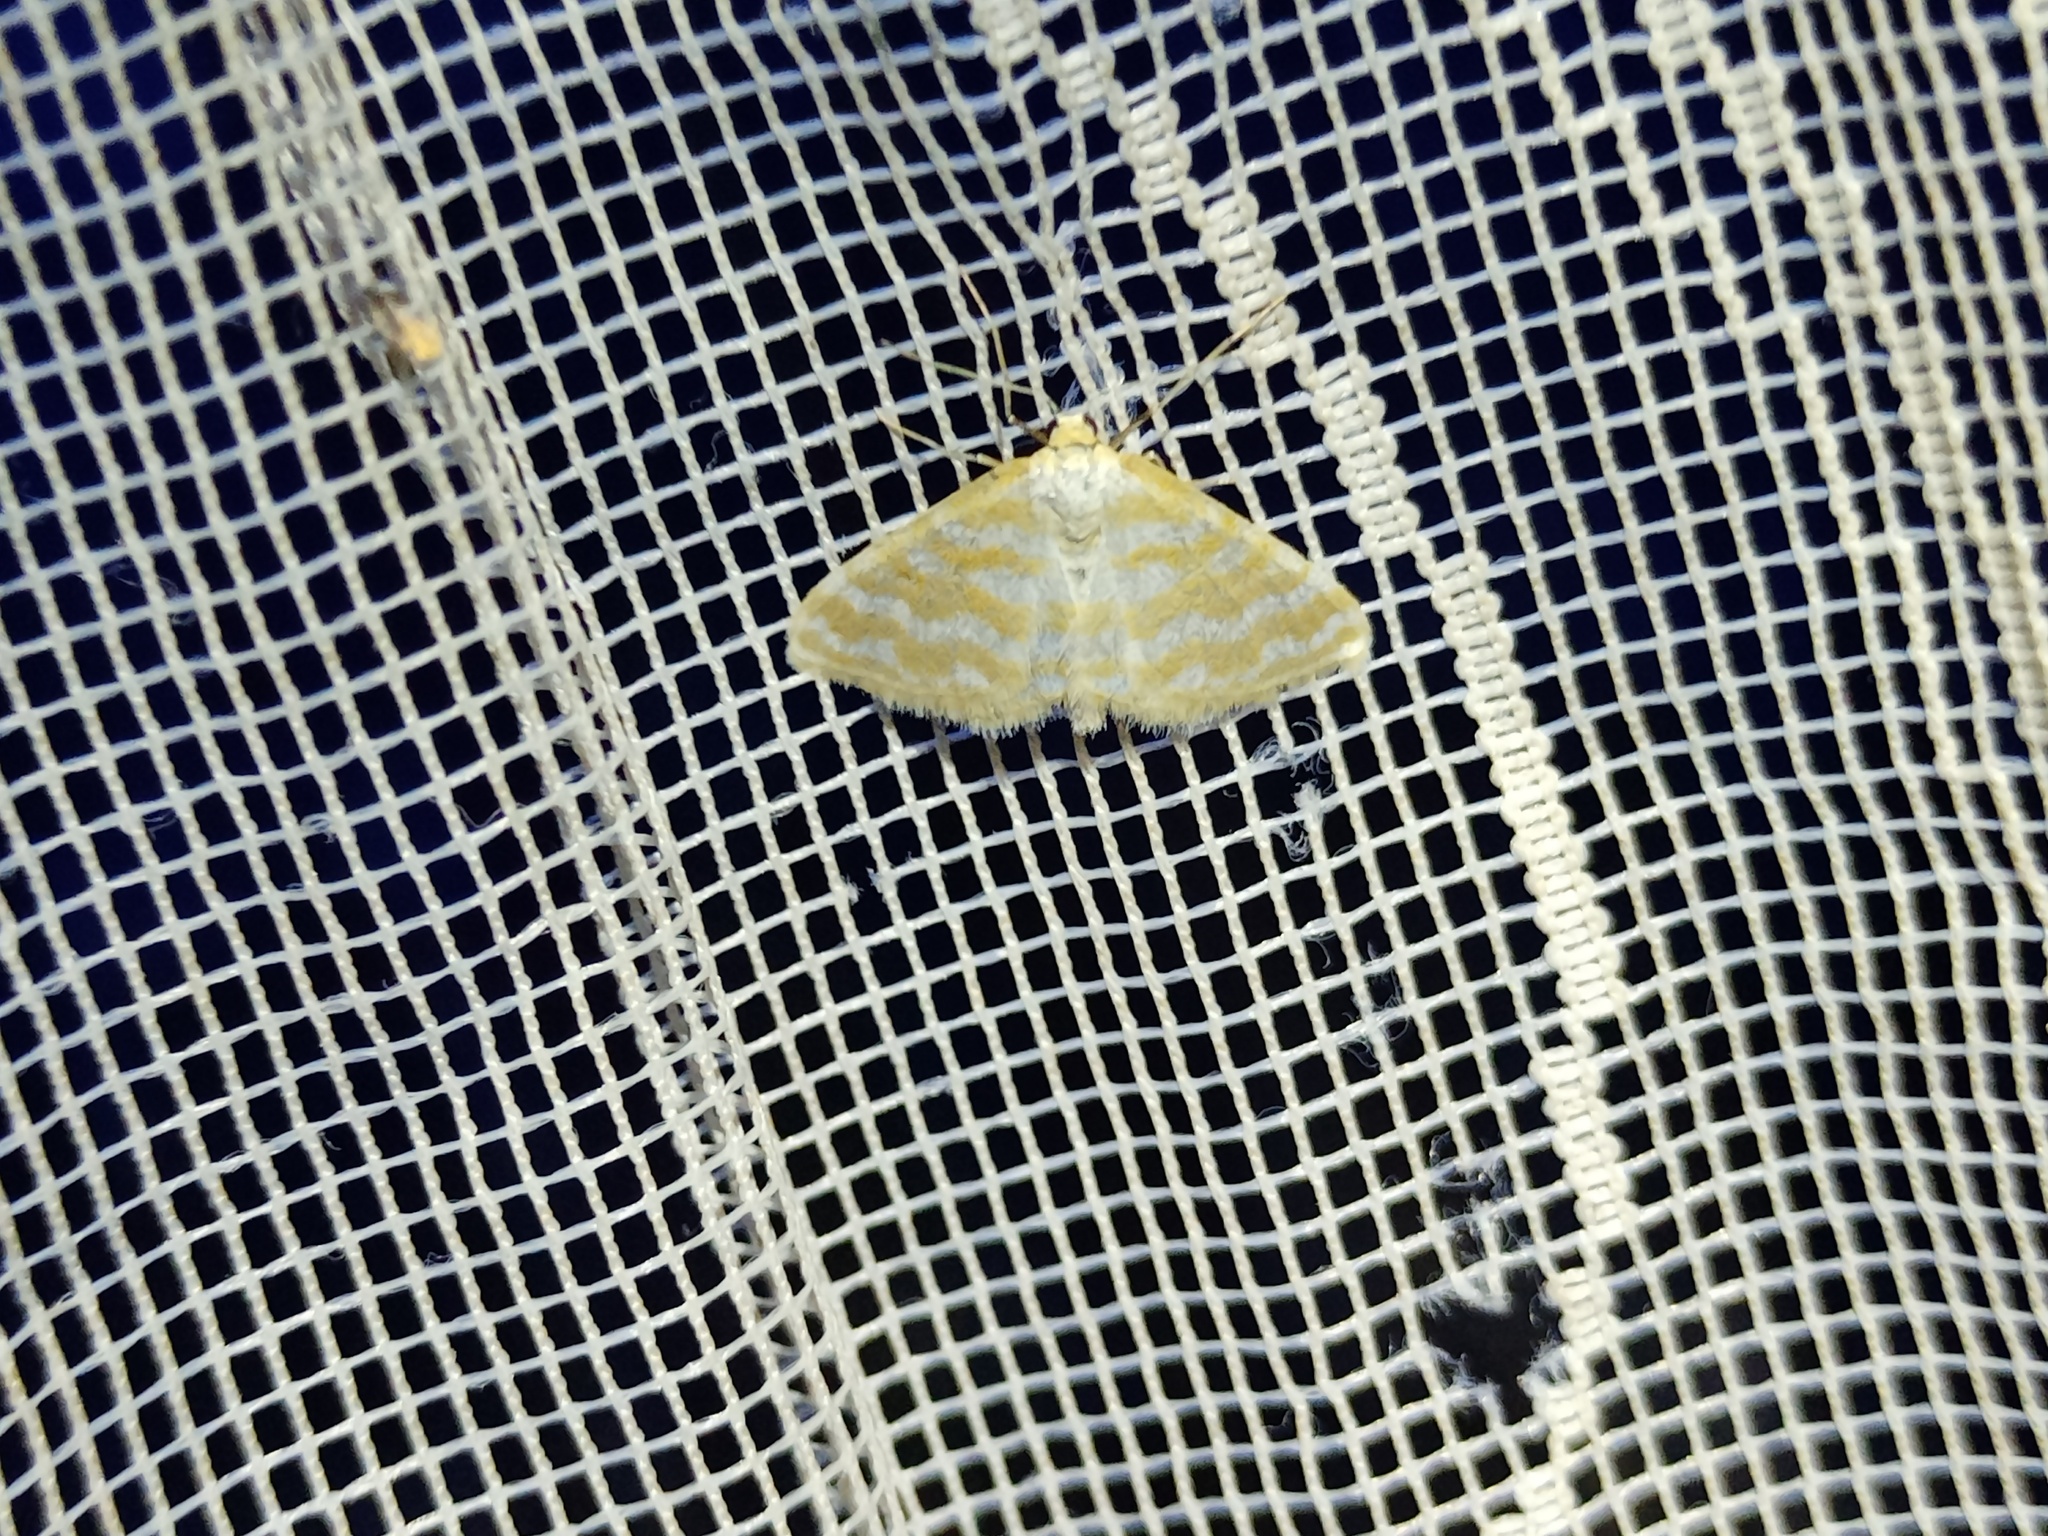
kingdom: Animalia
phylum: Arthropoda
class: Insecta
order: Lepidoptera
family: Geometridae
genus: Idaea
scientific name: Idaea sericeata
